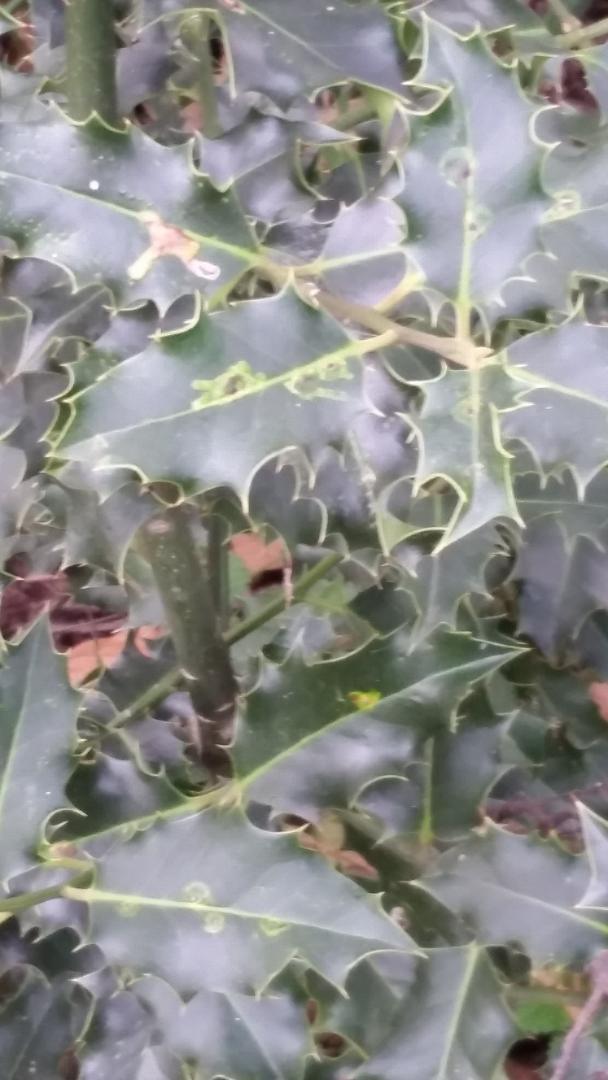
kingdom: Animalia
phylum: Arthropoda
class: Insecta
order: Diptera
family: Agromyzidae
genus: Phytomyza
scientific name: Phytomyza ilicis
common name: Holly leafminer
